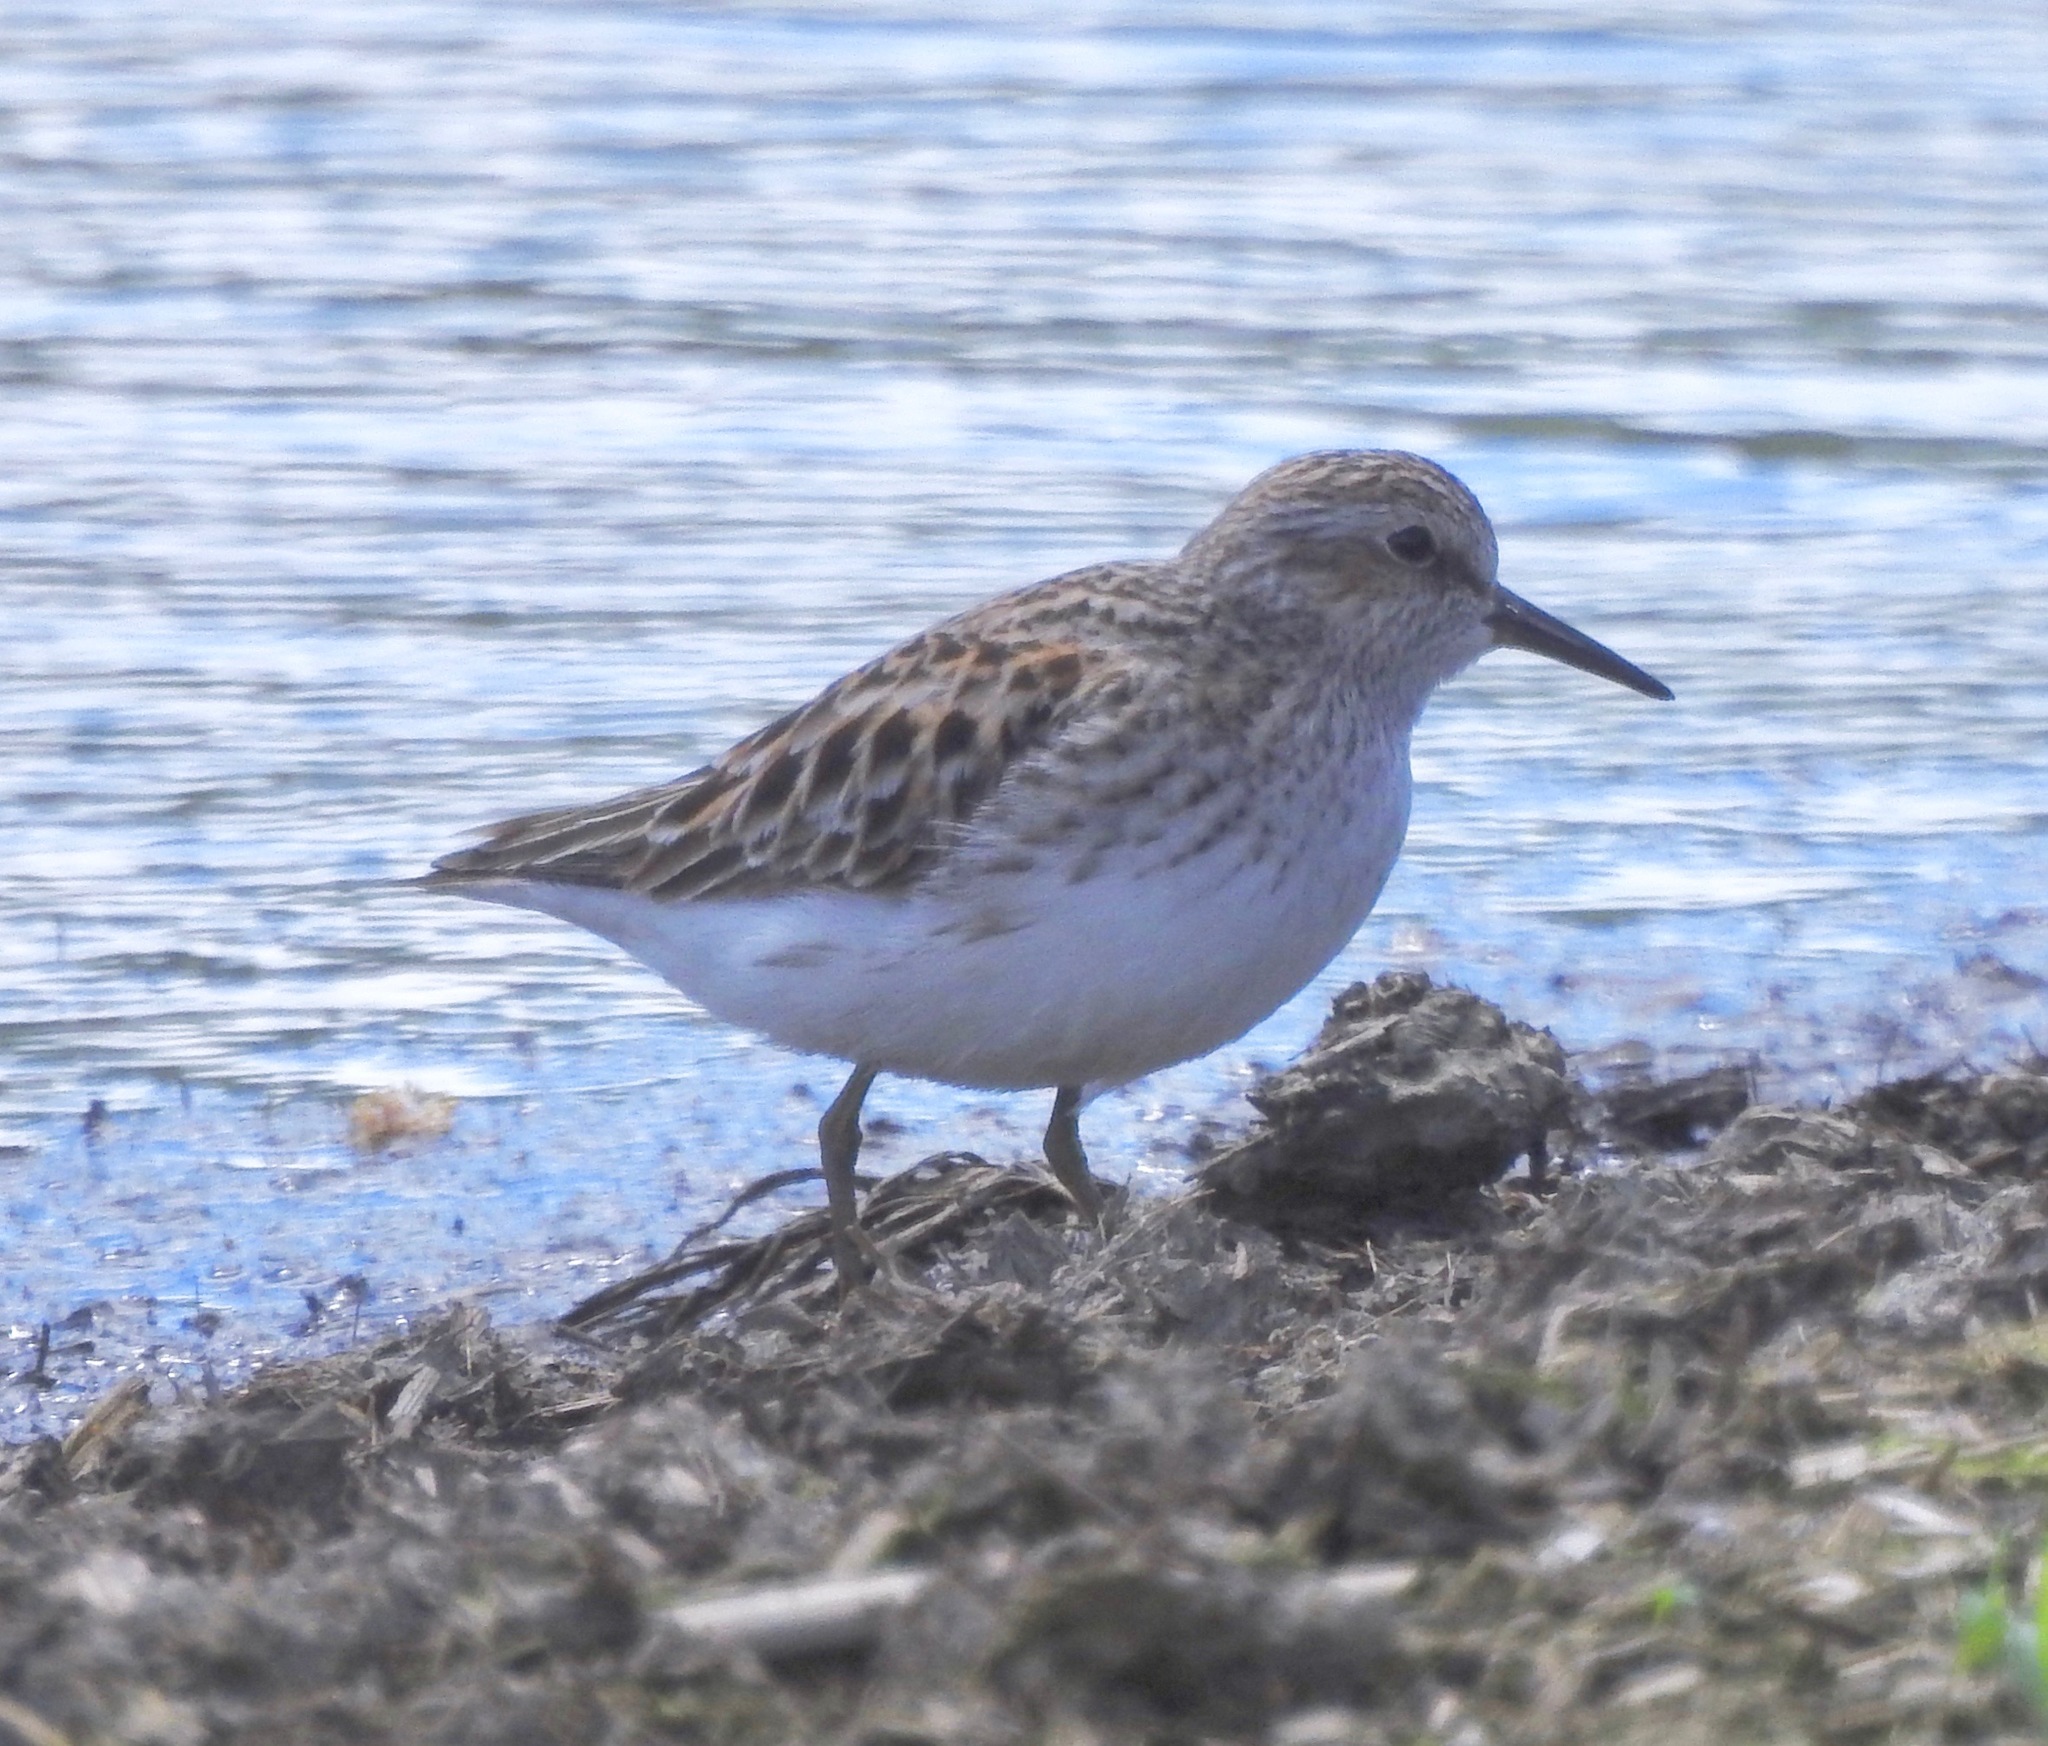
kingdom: Animalia
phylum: Chordata
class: Aves
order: Charadriiformes
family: Scolopacidae
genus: Calidris
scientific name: Calidris minutilla
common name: Least sandpiper
